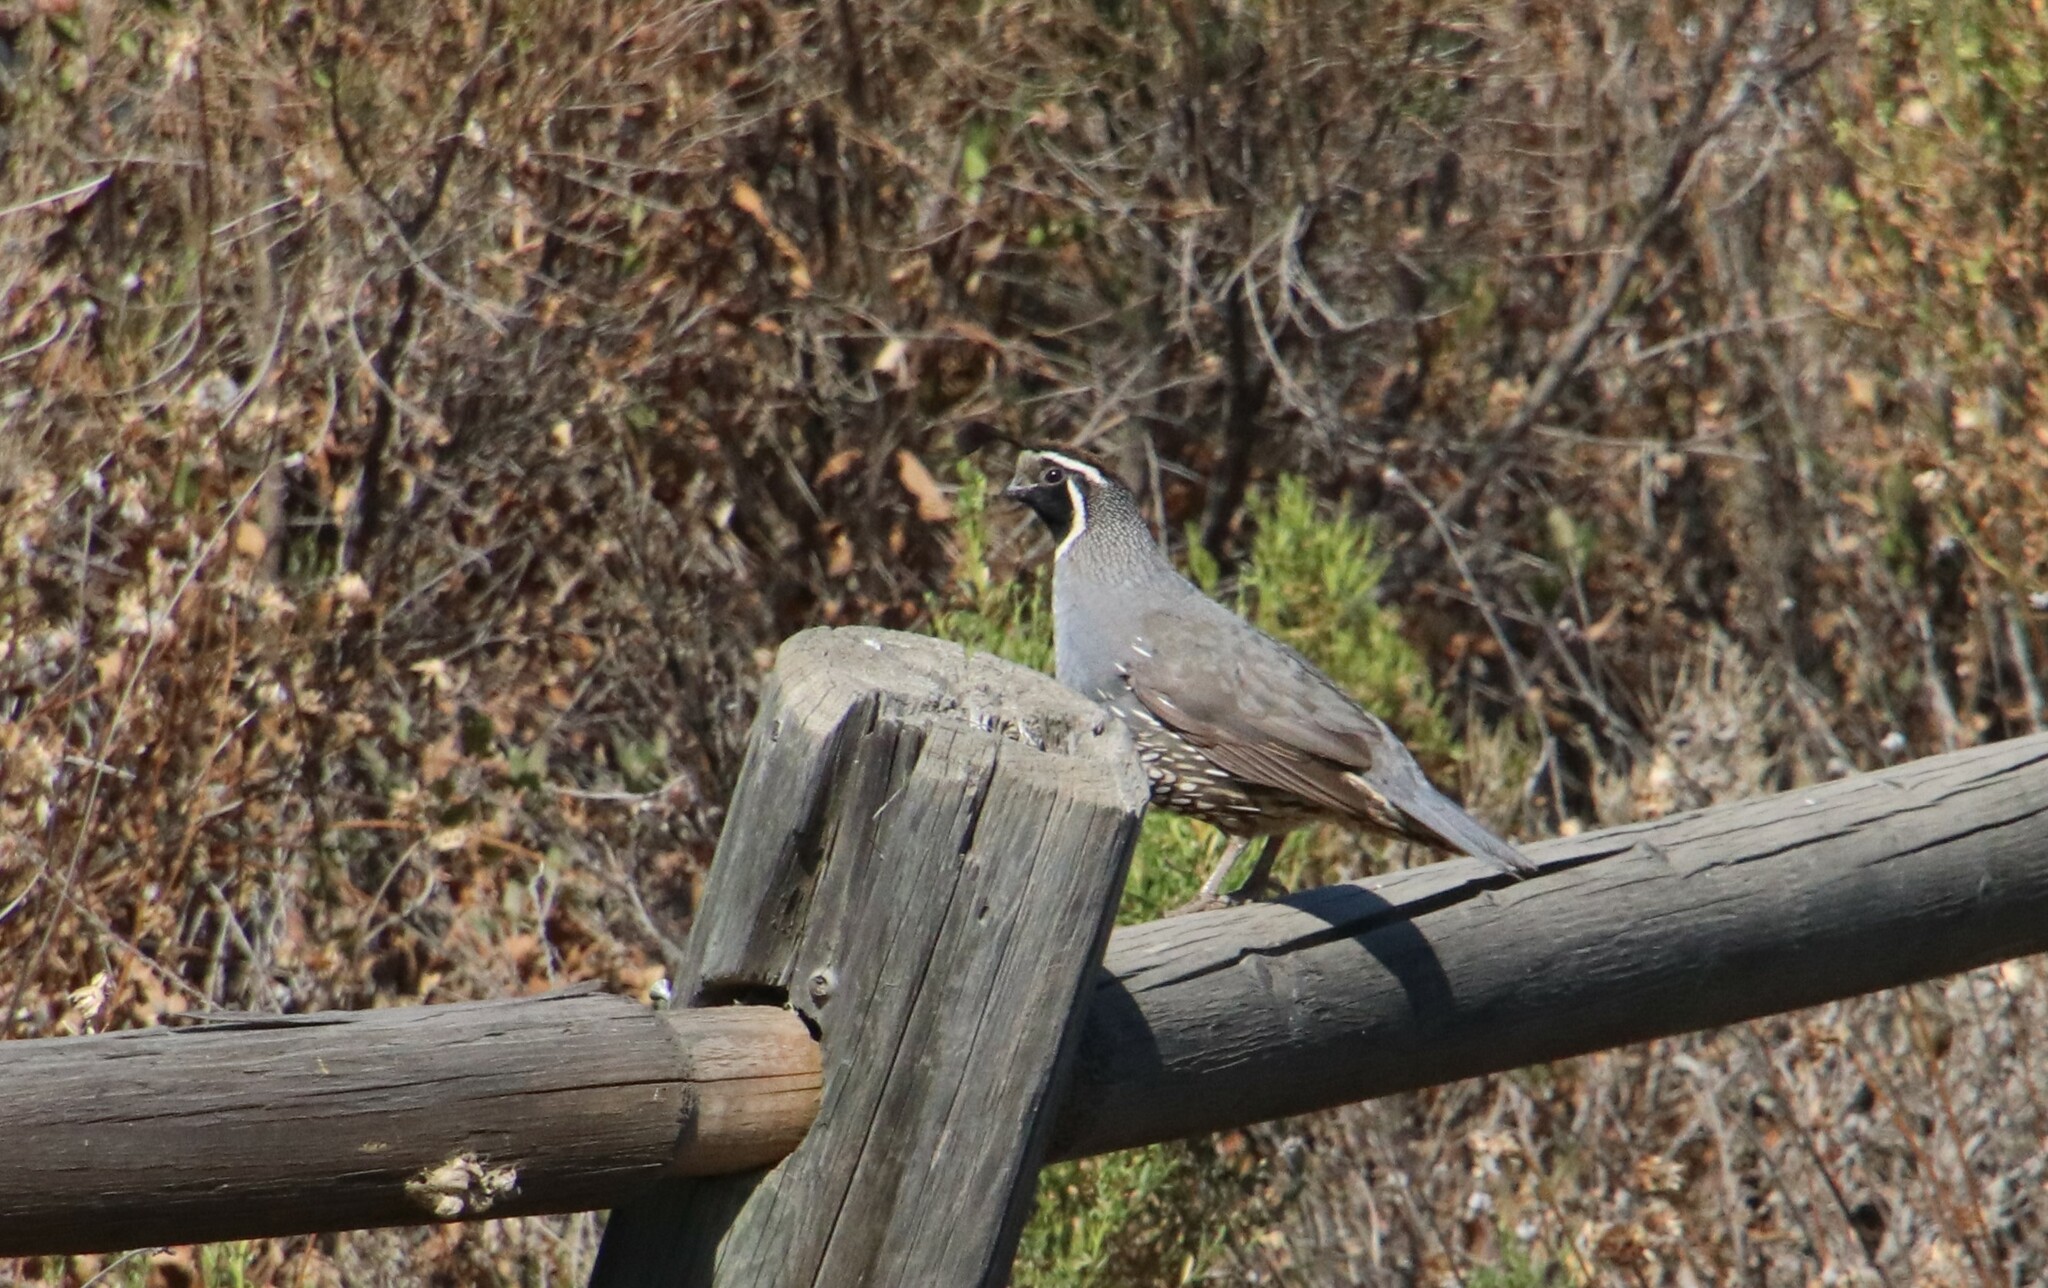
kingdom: Animalia
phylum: Chordata
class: Aves
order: Galliformes
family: Odontophoridae
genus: Callipepla
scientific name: Callipepla californica
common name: California quail
